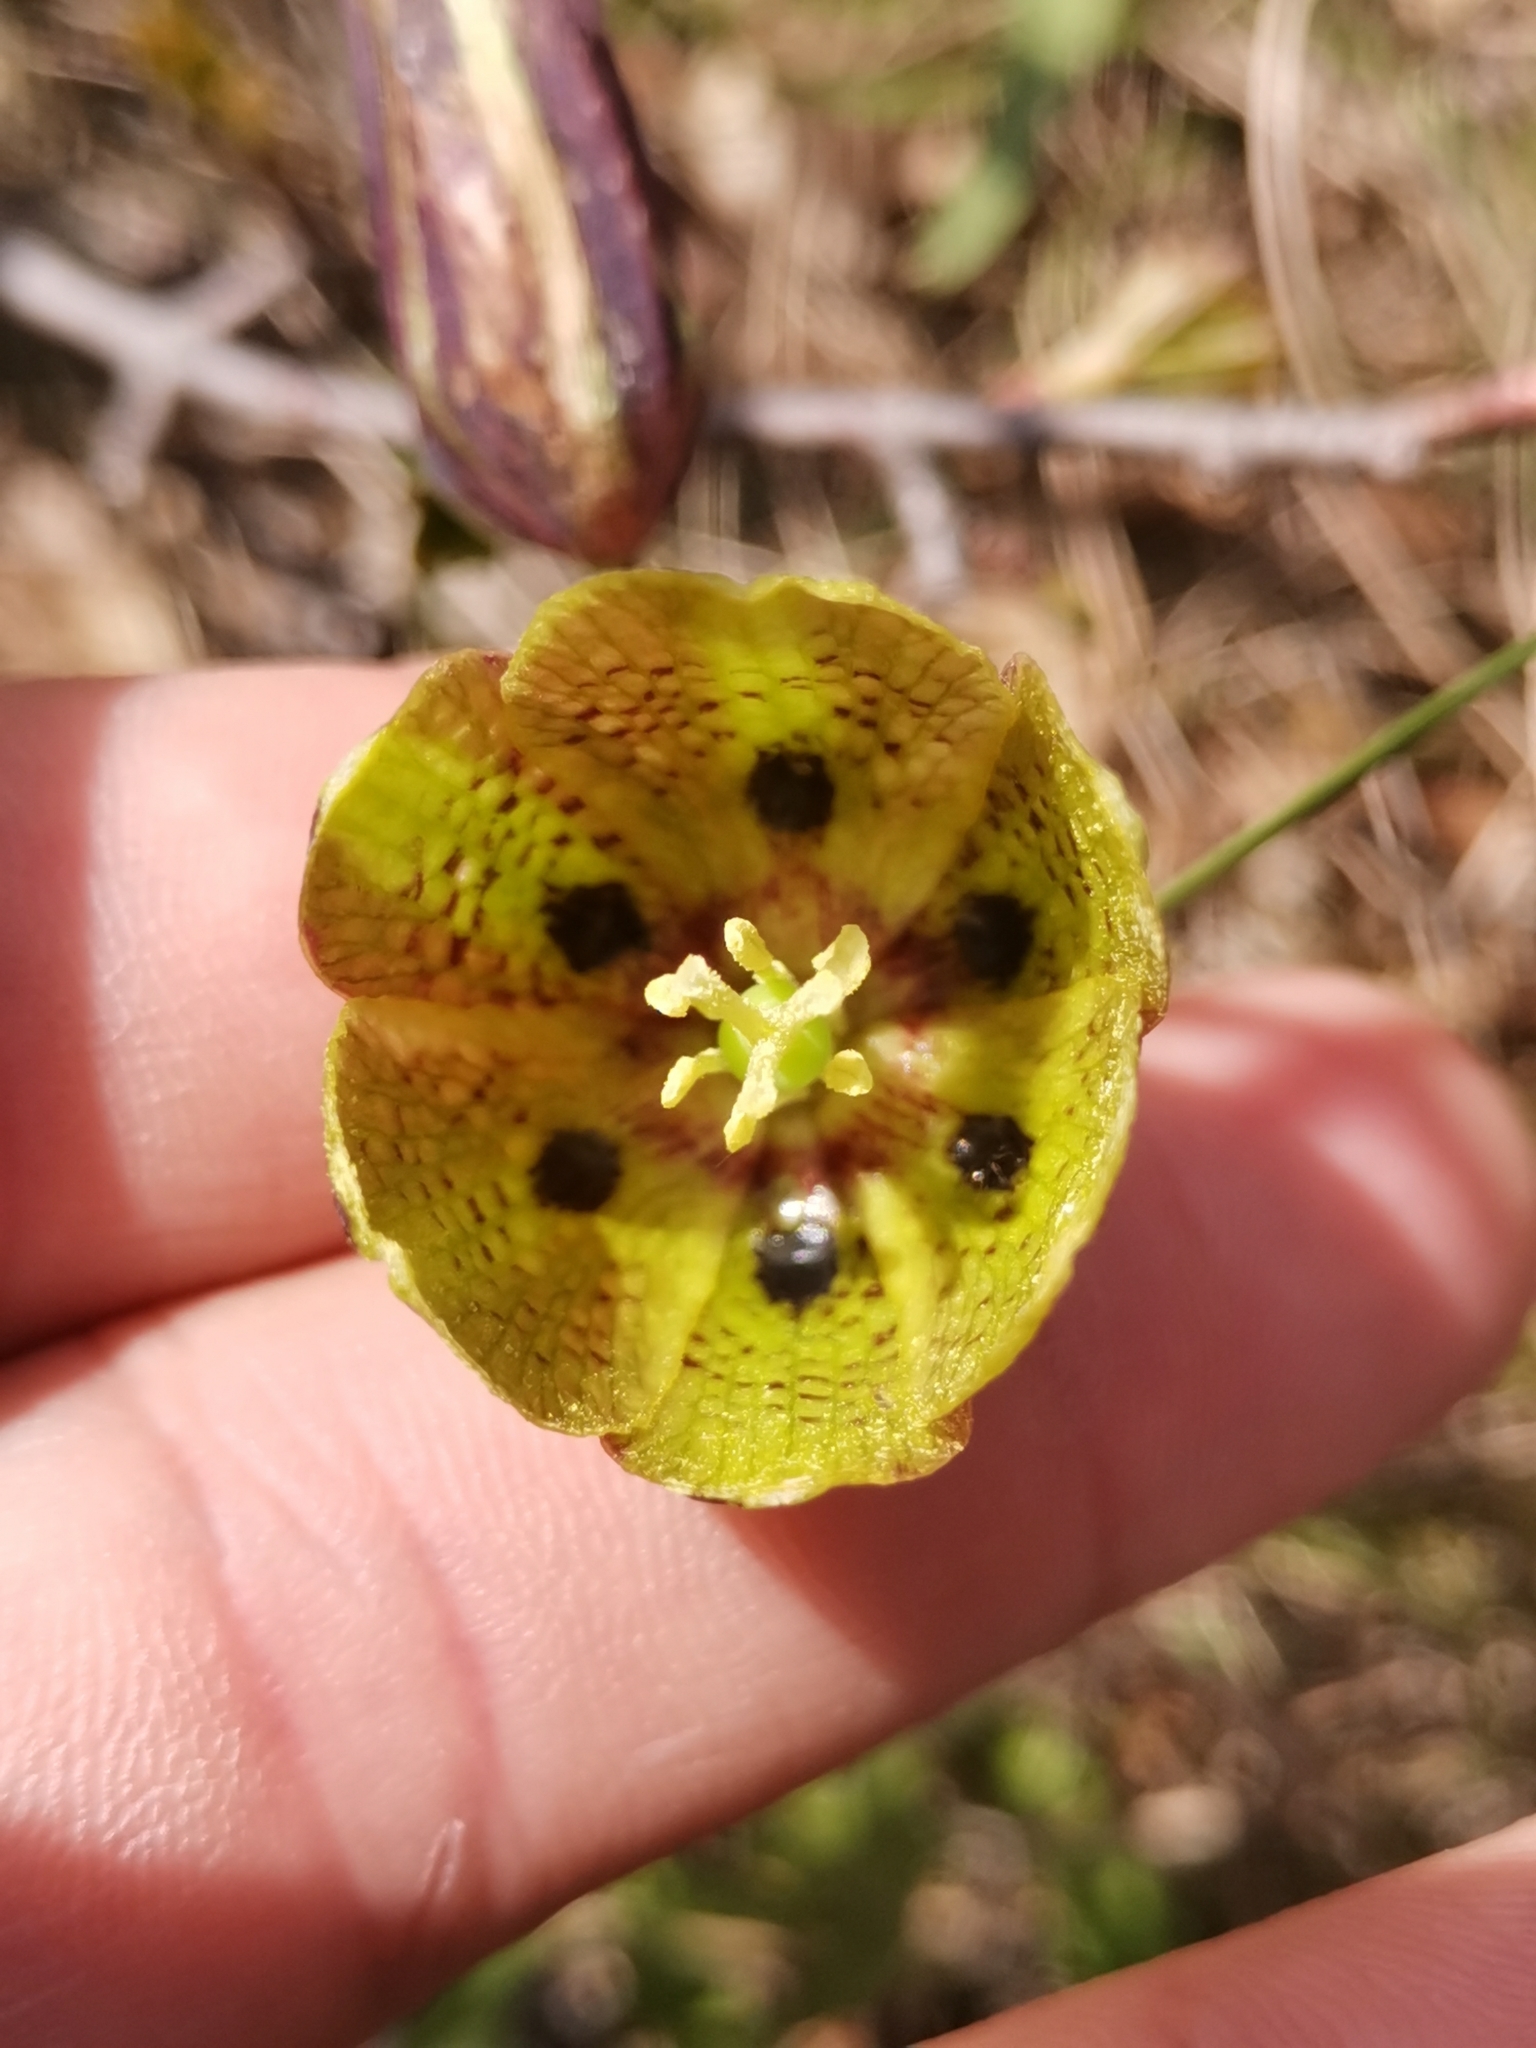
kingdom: Plantae
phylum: Tracheophyta
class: Liliopsida
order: Liliales
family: Liliaceae
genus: Fritillaria
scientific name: Fritillaria montana
